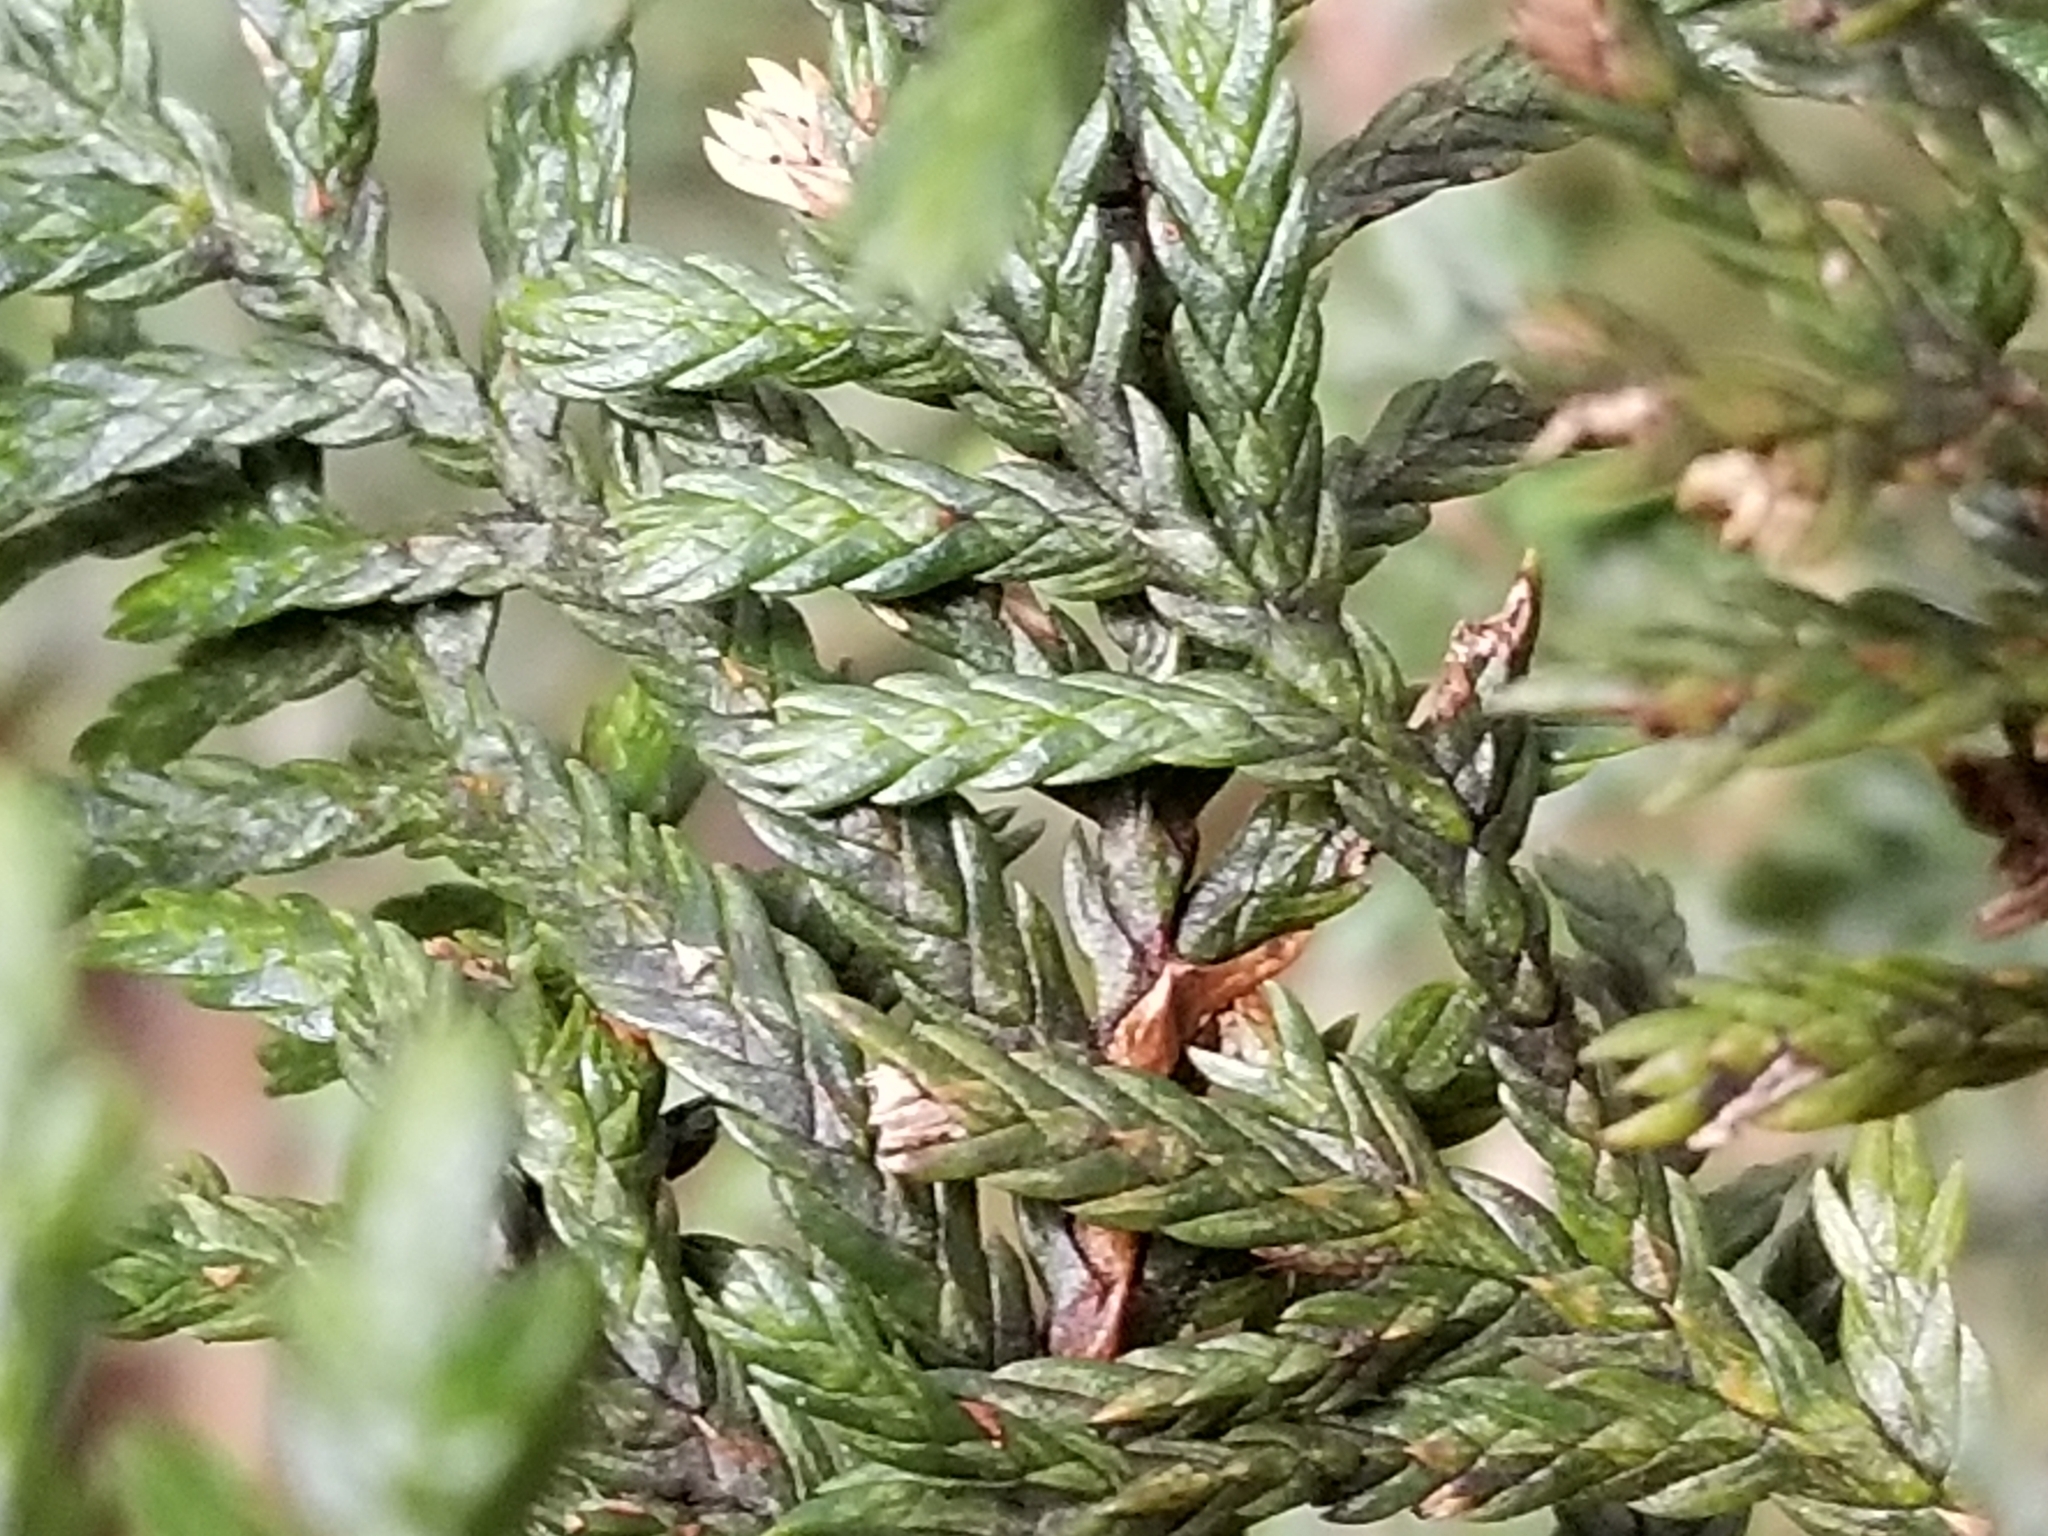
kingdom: Plantae
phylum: Tracheophyta
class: Pinopsida
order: Pinales
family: Cupressaceae
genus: Libocedrus
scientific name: Libocedrus bidwillii
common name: Cedar
